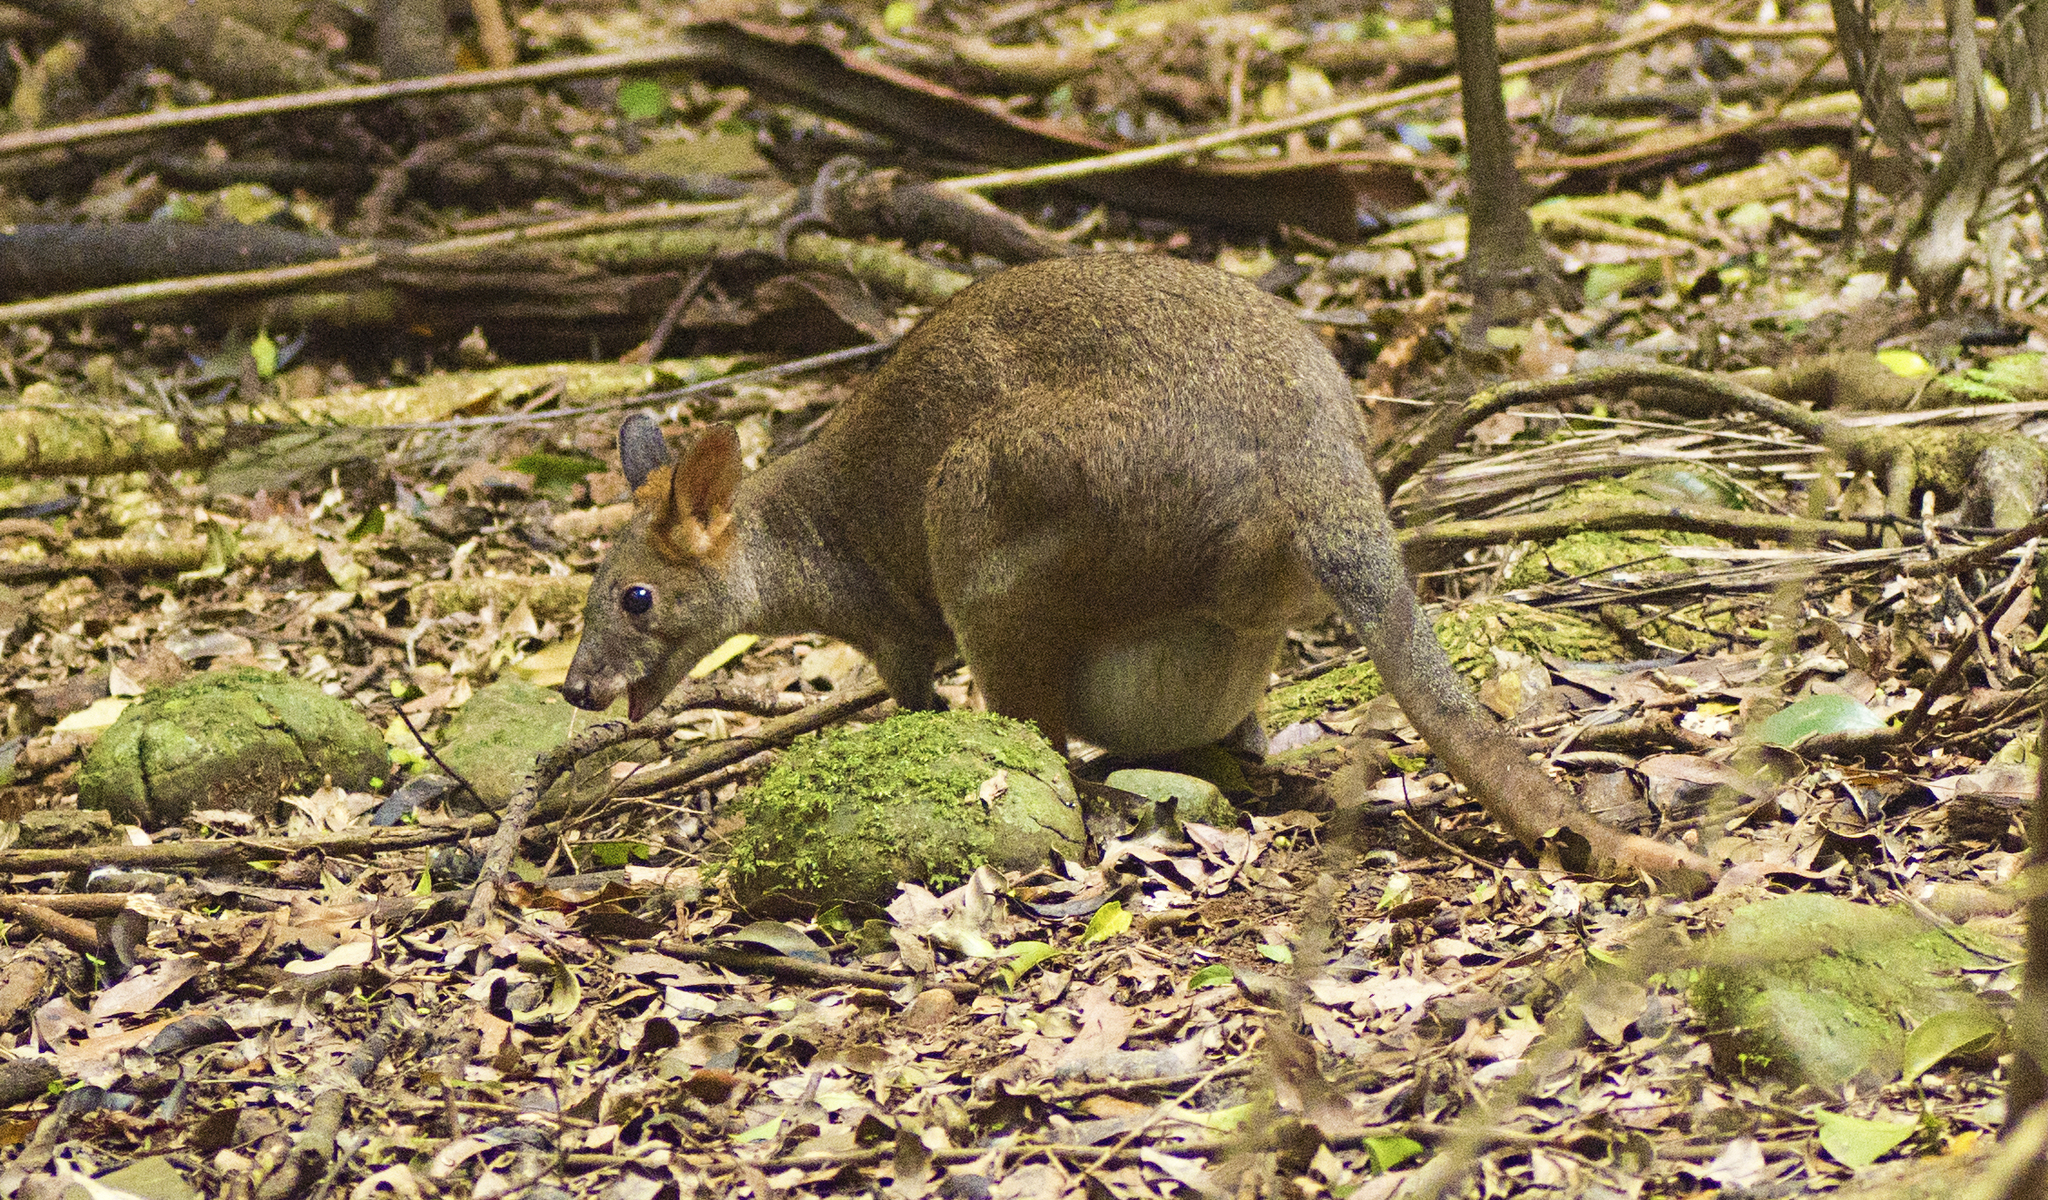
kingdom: Animalia
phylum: Chordata
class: Mammalia
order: Diprotodontia
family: Macropodidae
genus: Thylogale
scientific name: Thylogale stigmatica
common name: Red-legged pademelon
